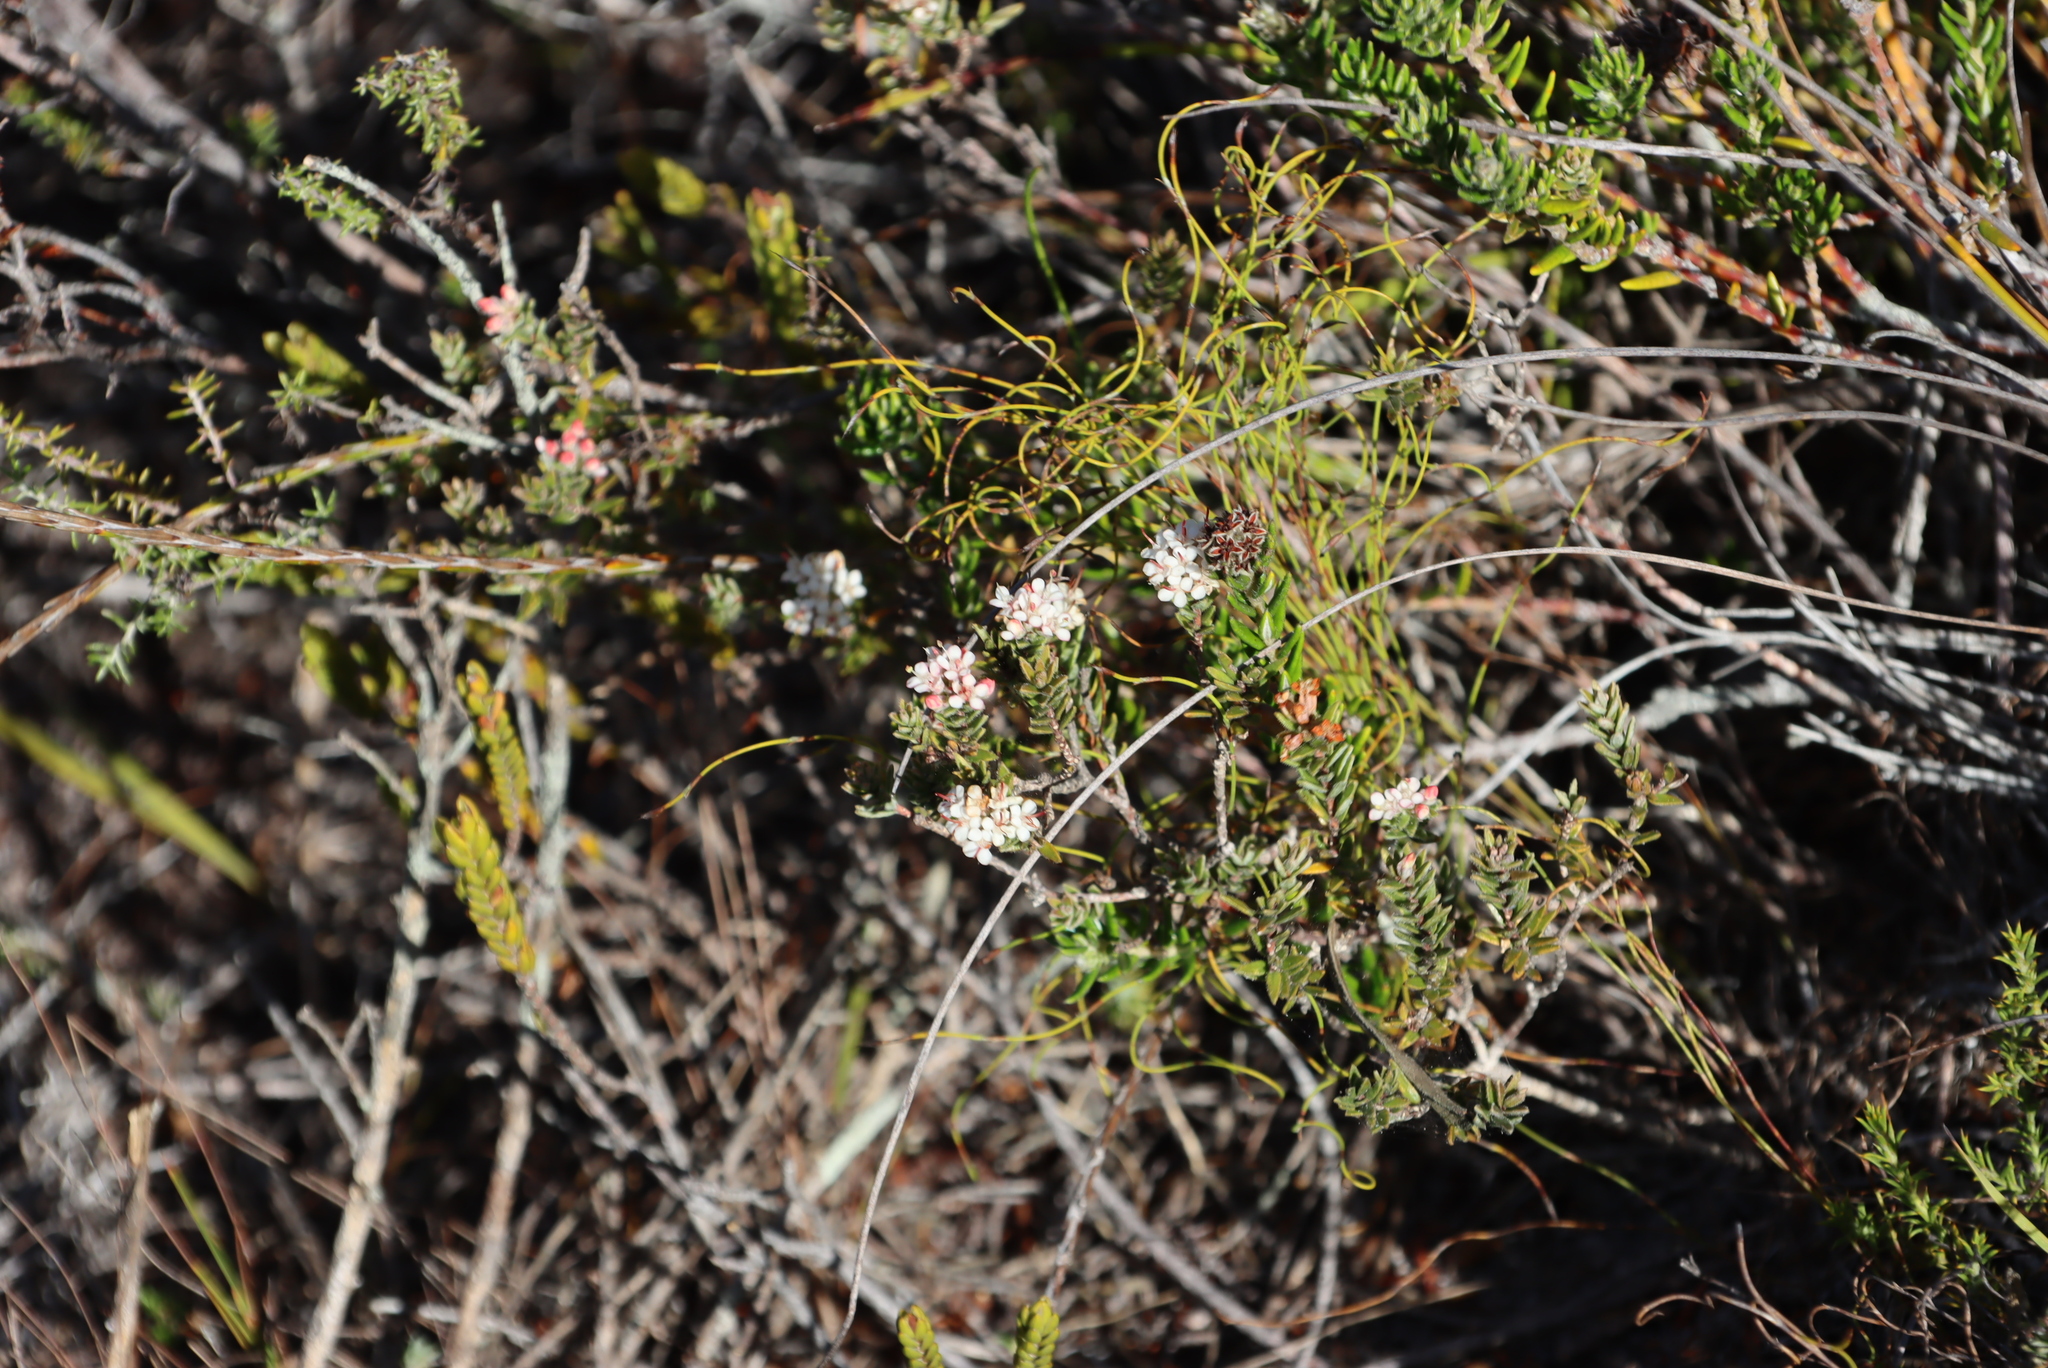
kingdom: Plantae
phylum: Tracheophyta
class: Magnoliopsida
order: Sapindales
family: Rutaceae
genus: Macrostylis
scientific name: Macrostylis villosa
